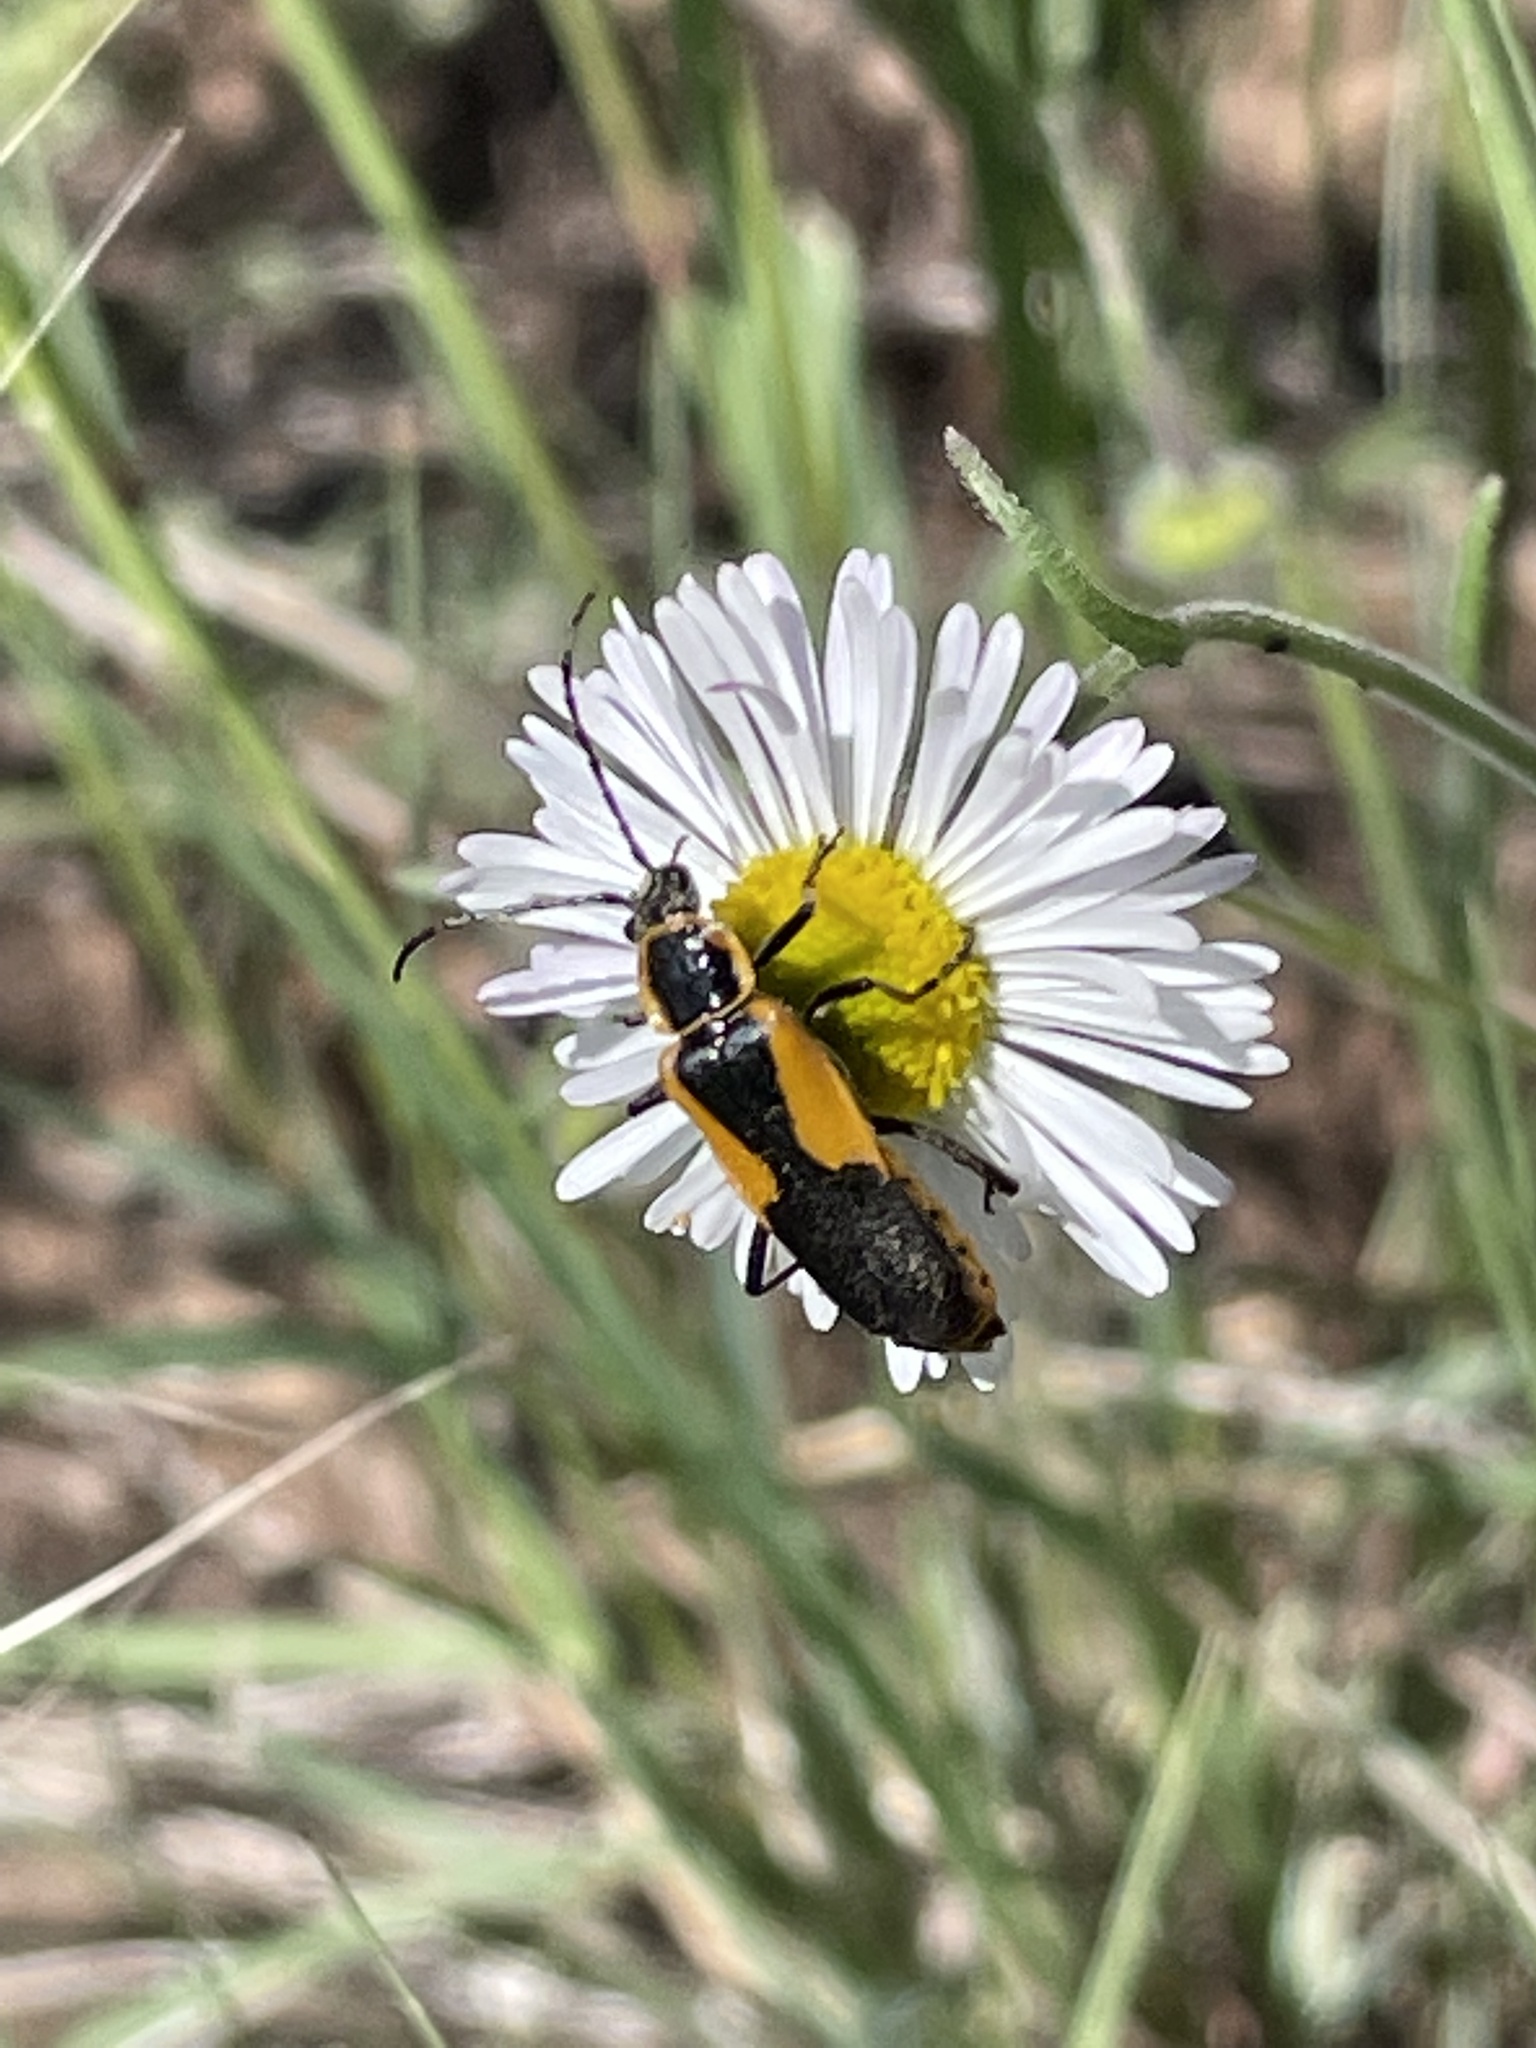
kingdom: Animalia
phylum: Arthropoda
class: Insecta
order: Coleoptera
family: Cantharidae
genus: Chauliognathus
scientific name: Chauliognathus
